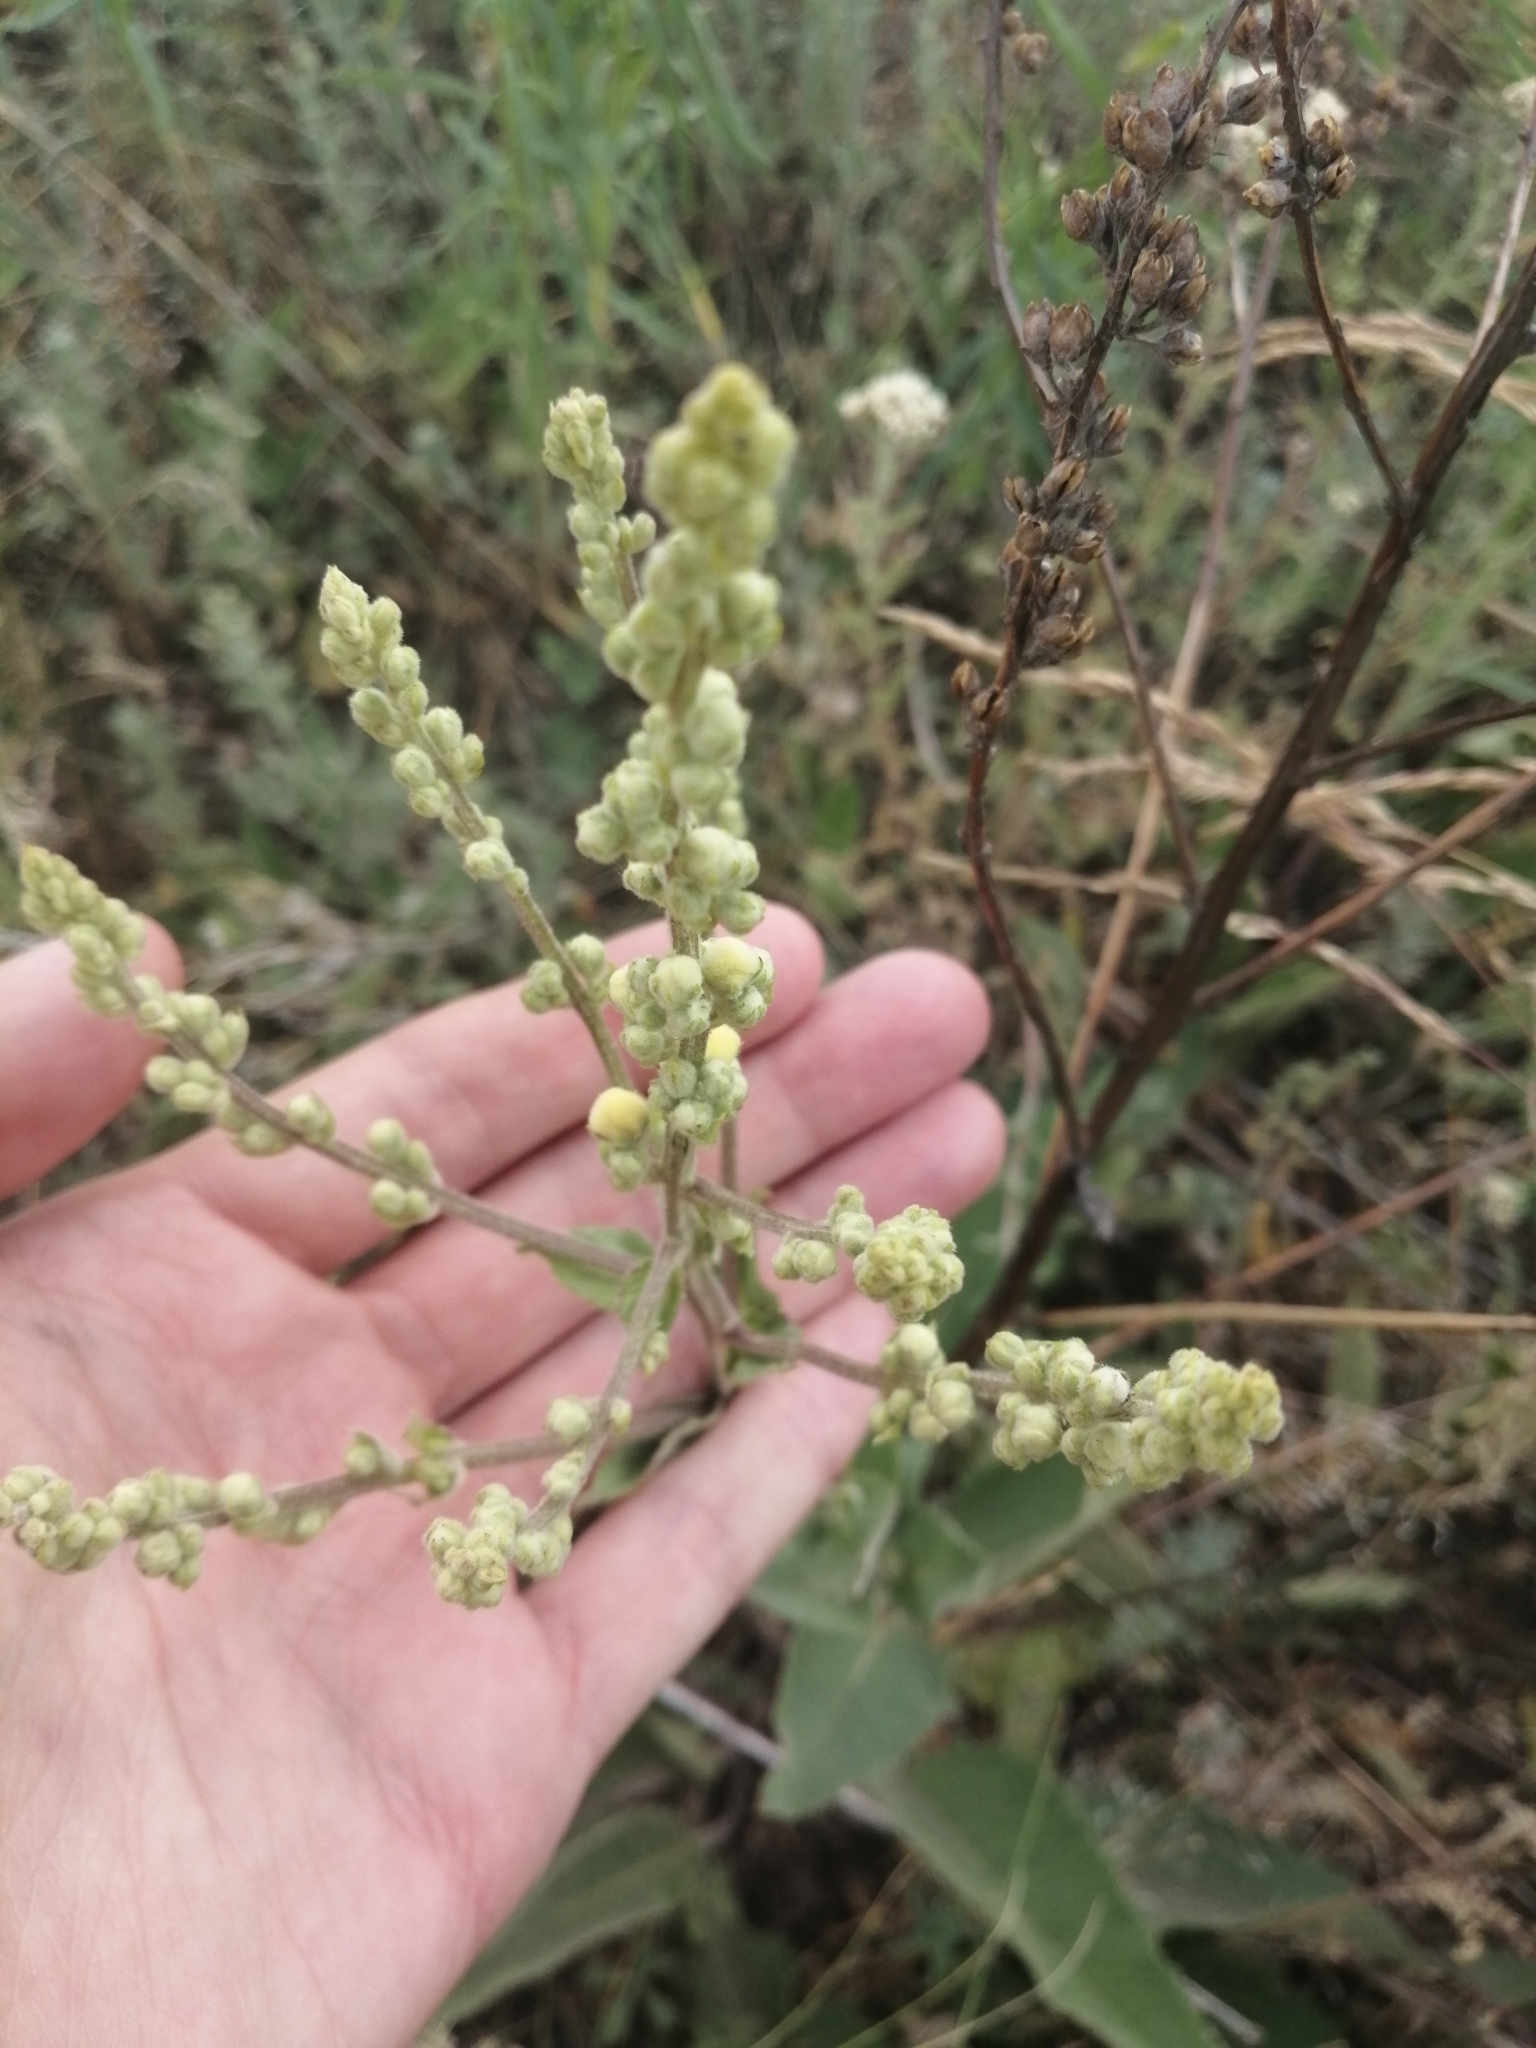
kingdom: Plantae
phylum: Tracheophyta
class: Magnoliopsida
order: Lamiales
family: Scrophulariaceae
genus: Verbascum
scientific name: Verbascum chaixii
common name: Nettle-leaved mullein
